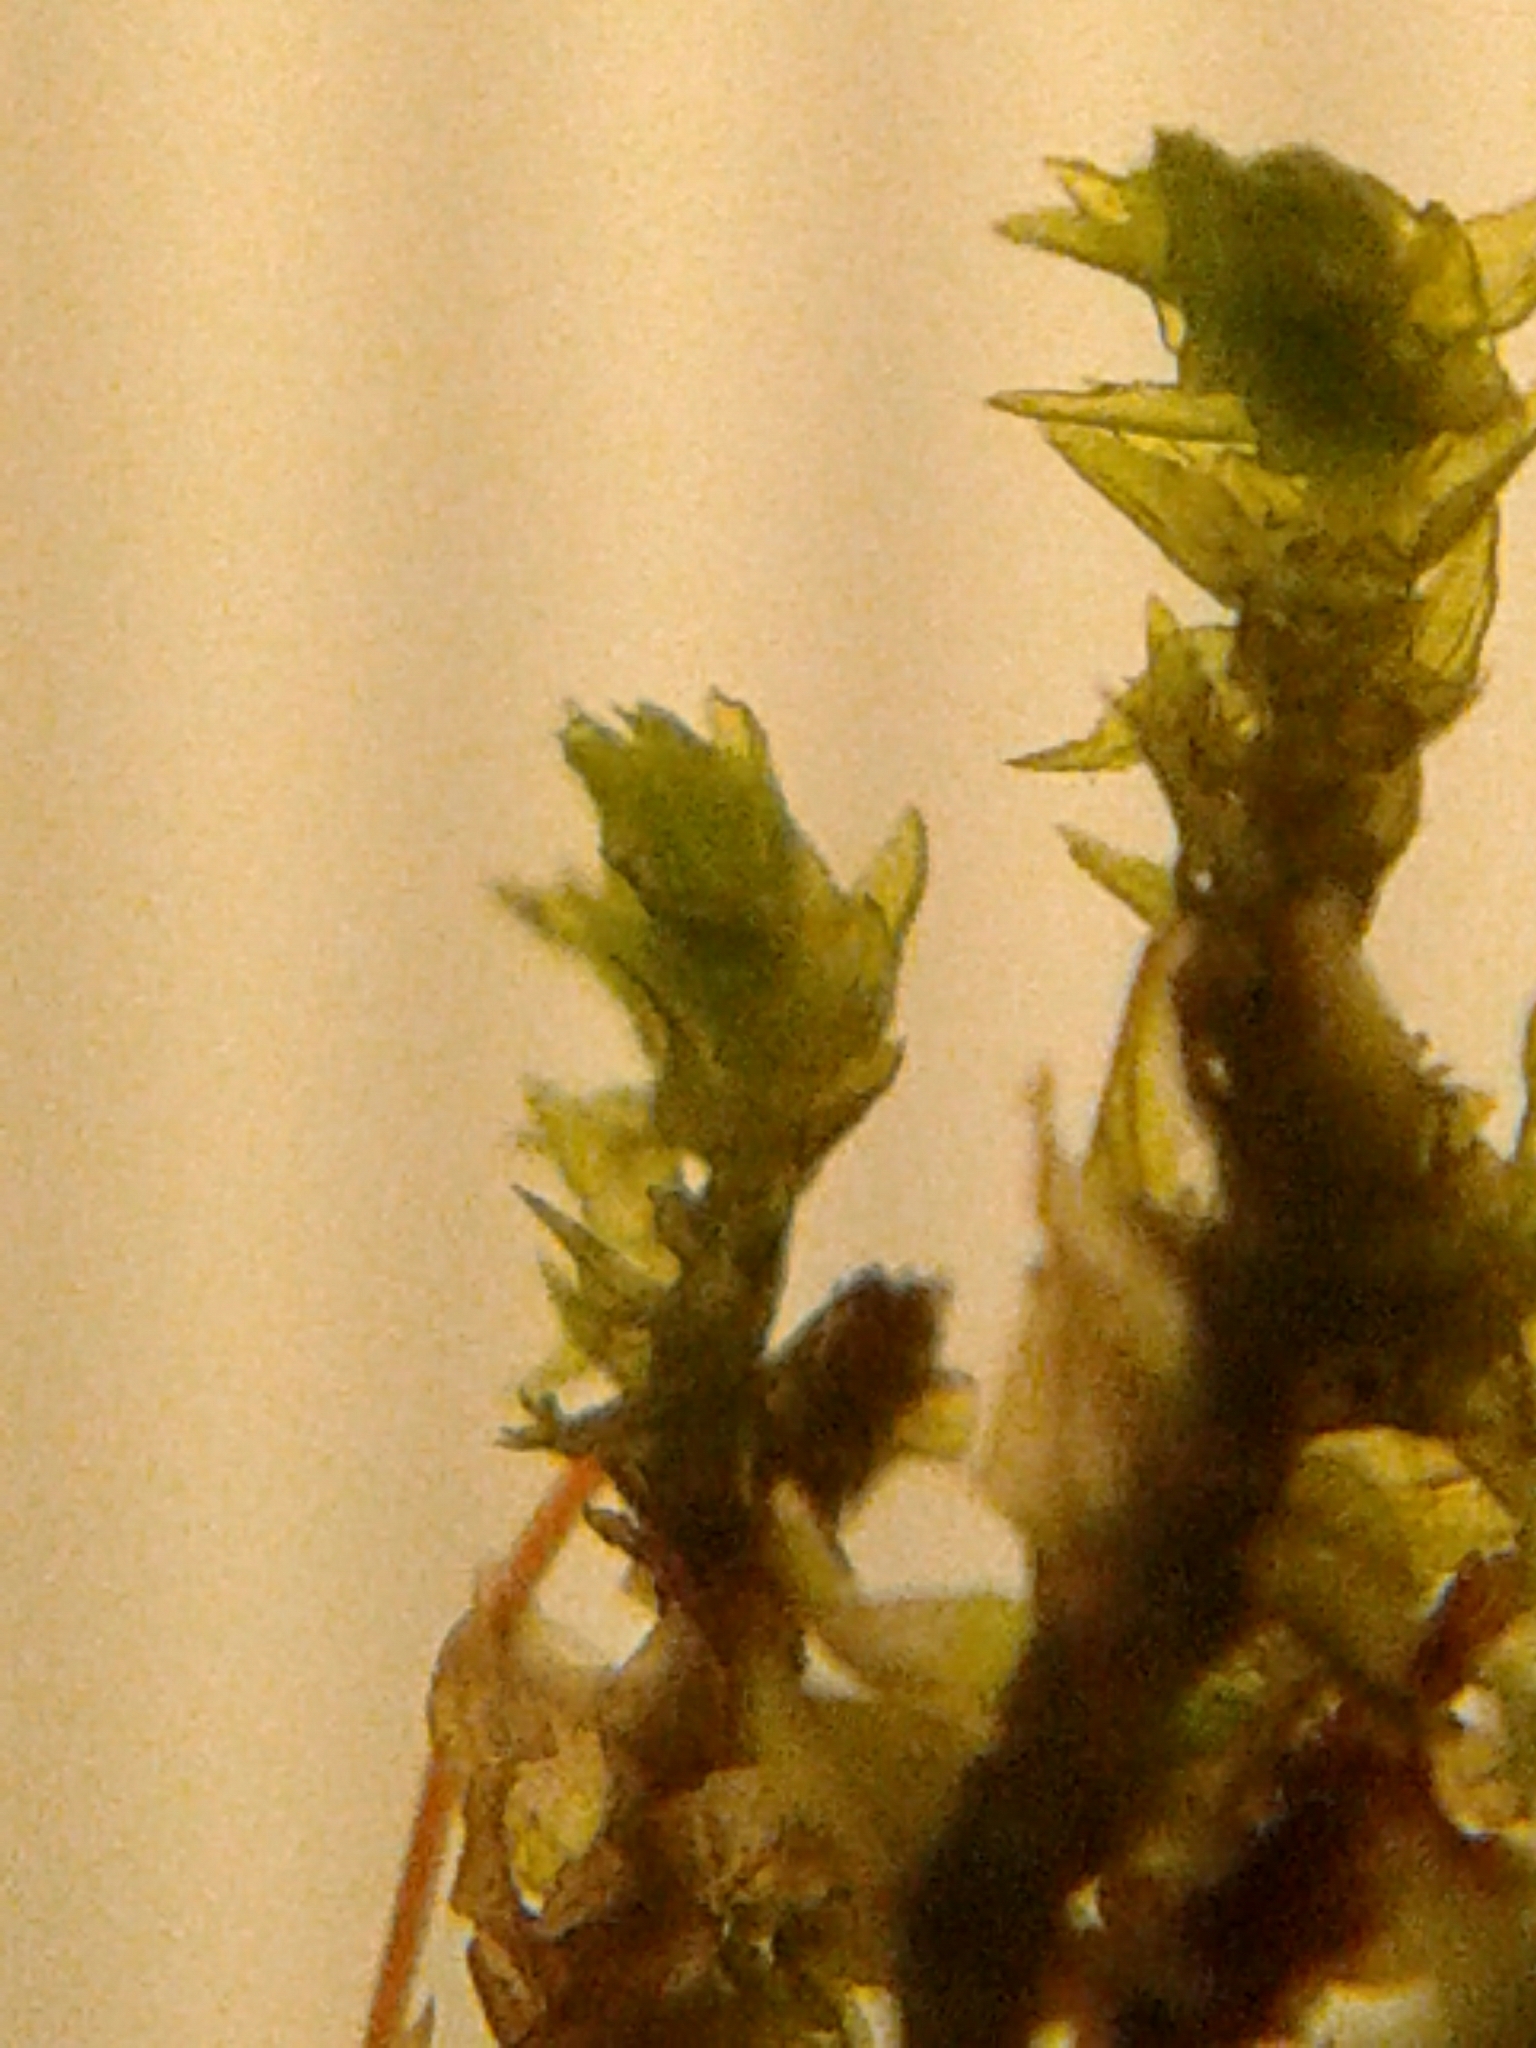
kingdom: Plantae
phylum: Bryophyta
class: Bryopsida
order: Hypnales
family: Neckeraceae
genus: Pseudanomodon
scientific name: Pseudanomodon attenuatus
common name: Tree-skirt moss
